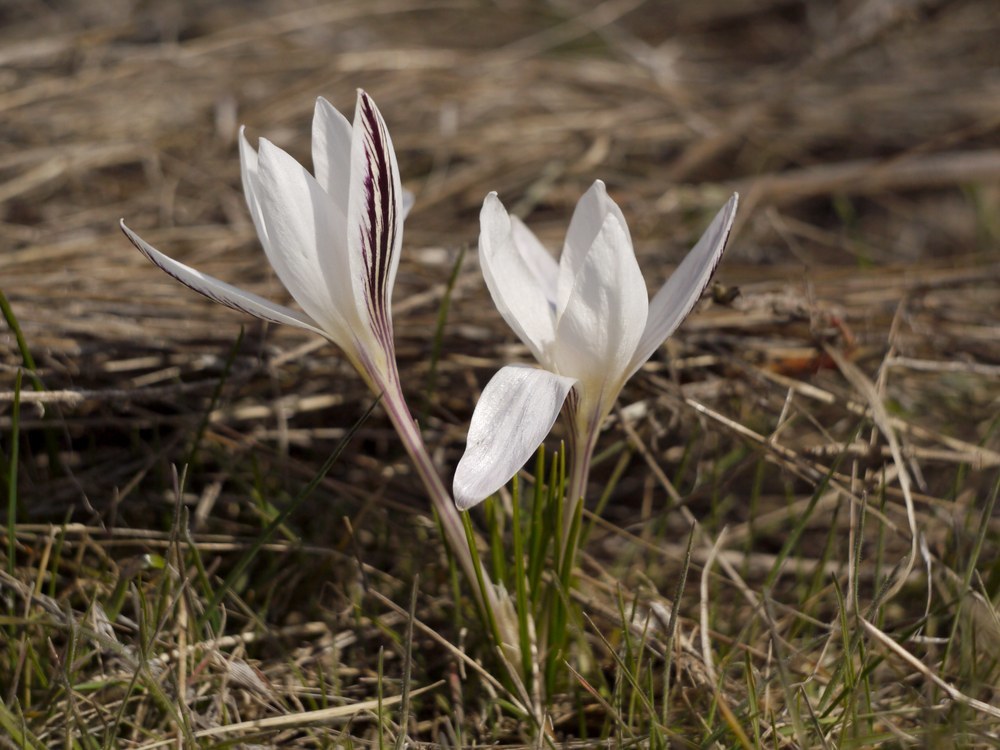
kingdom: Plantae
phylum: Tracheophyta
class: Liliopsida
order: Asparagales
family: Iridaceae
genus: Crocus
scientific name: Crocus reticulatus
